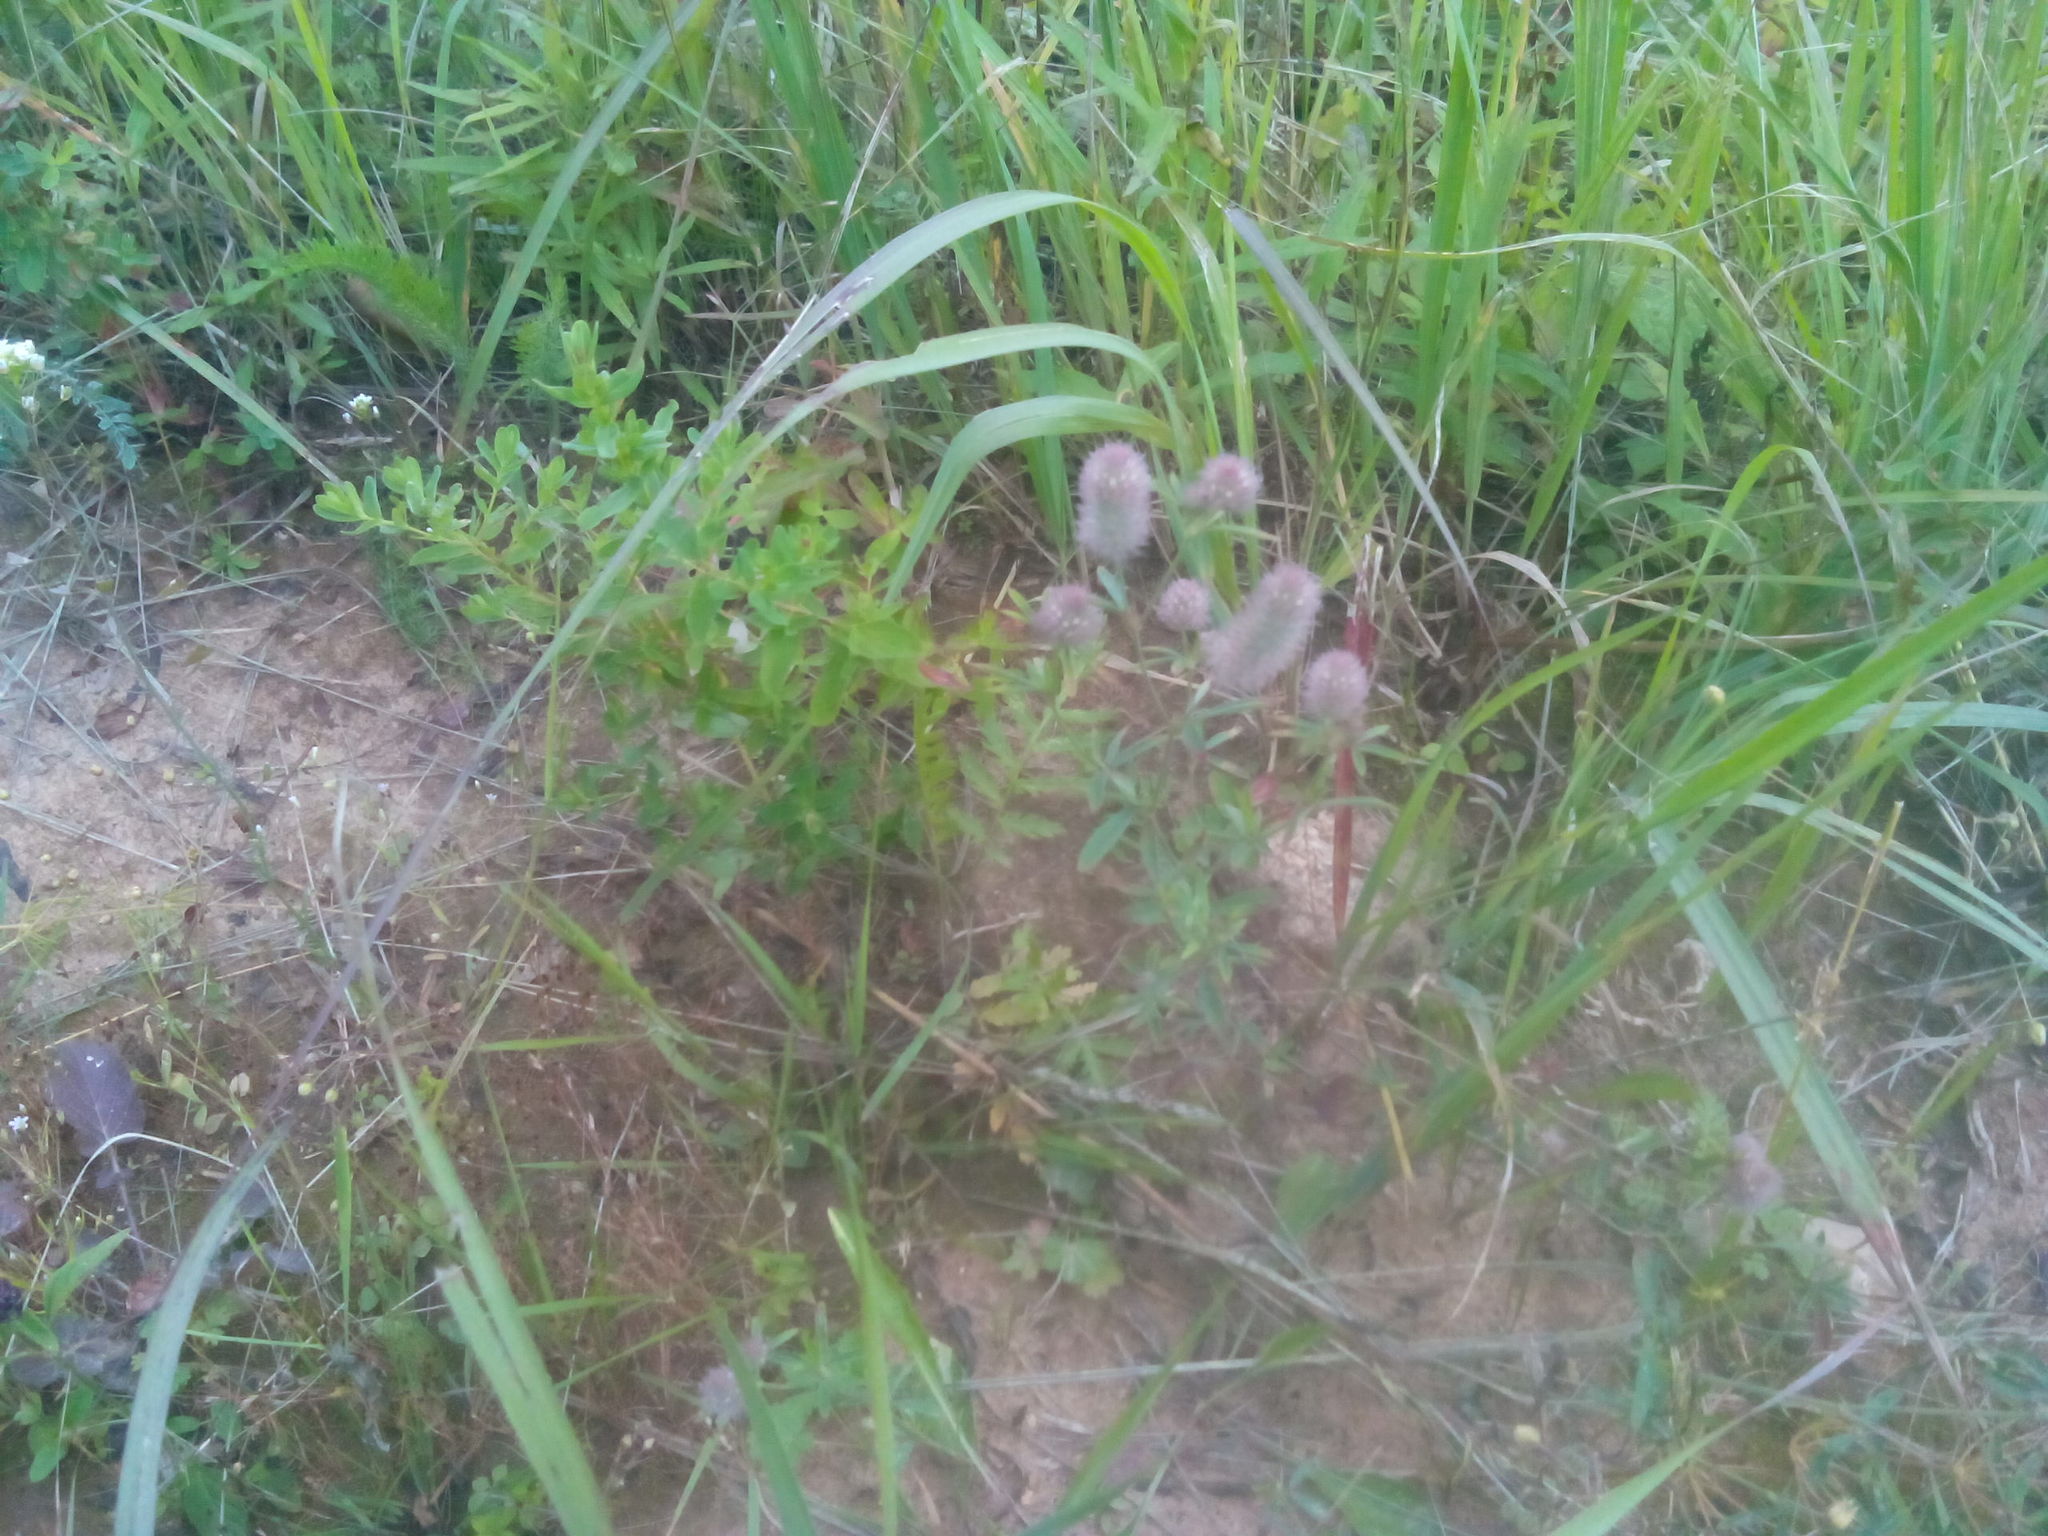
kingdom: Plantae
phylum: Tracheophyta
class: Magnoliopsida
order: Fabales
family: Fabaceae
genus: Trifolium
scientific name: Trifolium arvense
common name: Hare's-foot clover
